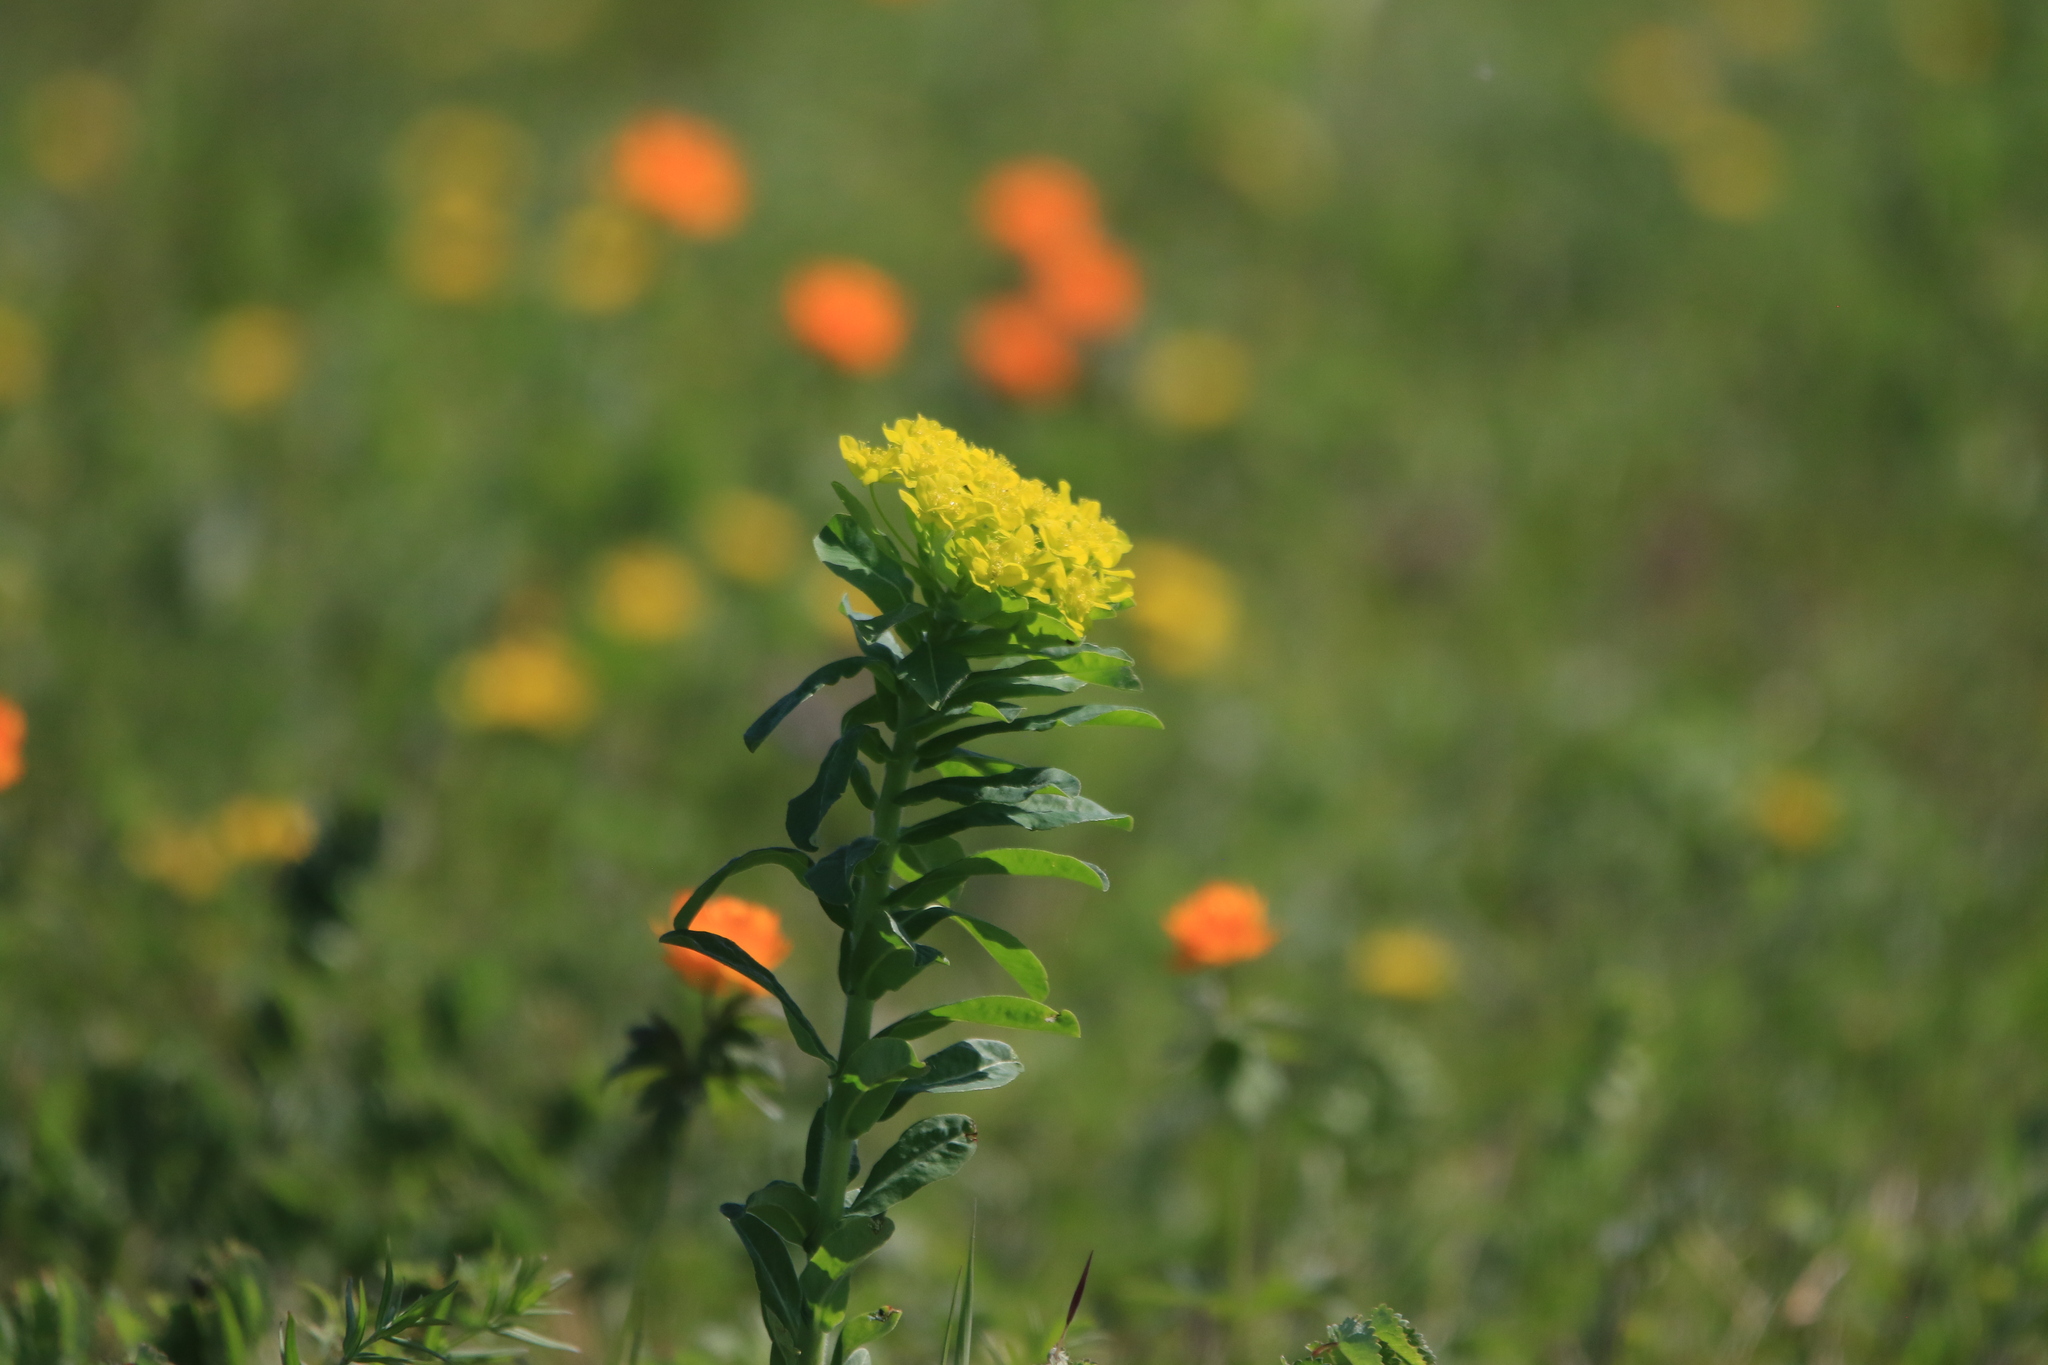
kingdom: Plantae
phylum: Tracheophyta
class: Magnoliopsida
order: Malpighiales
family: Euphorbiaceae
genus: Euphorbia
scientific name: Euphorbia pilosa
